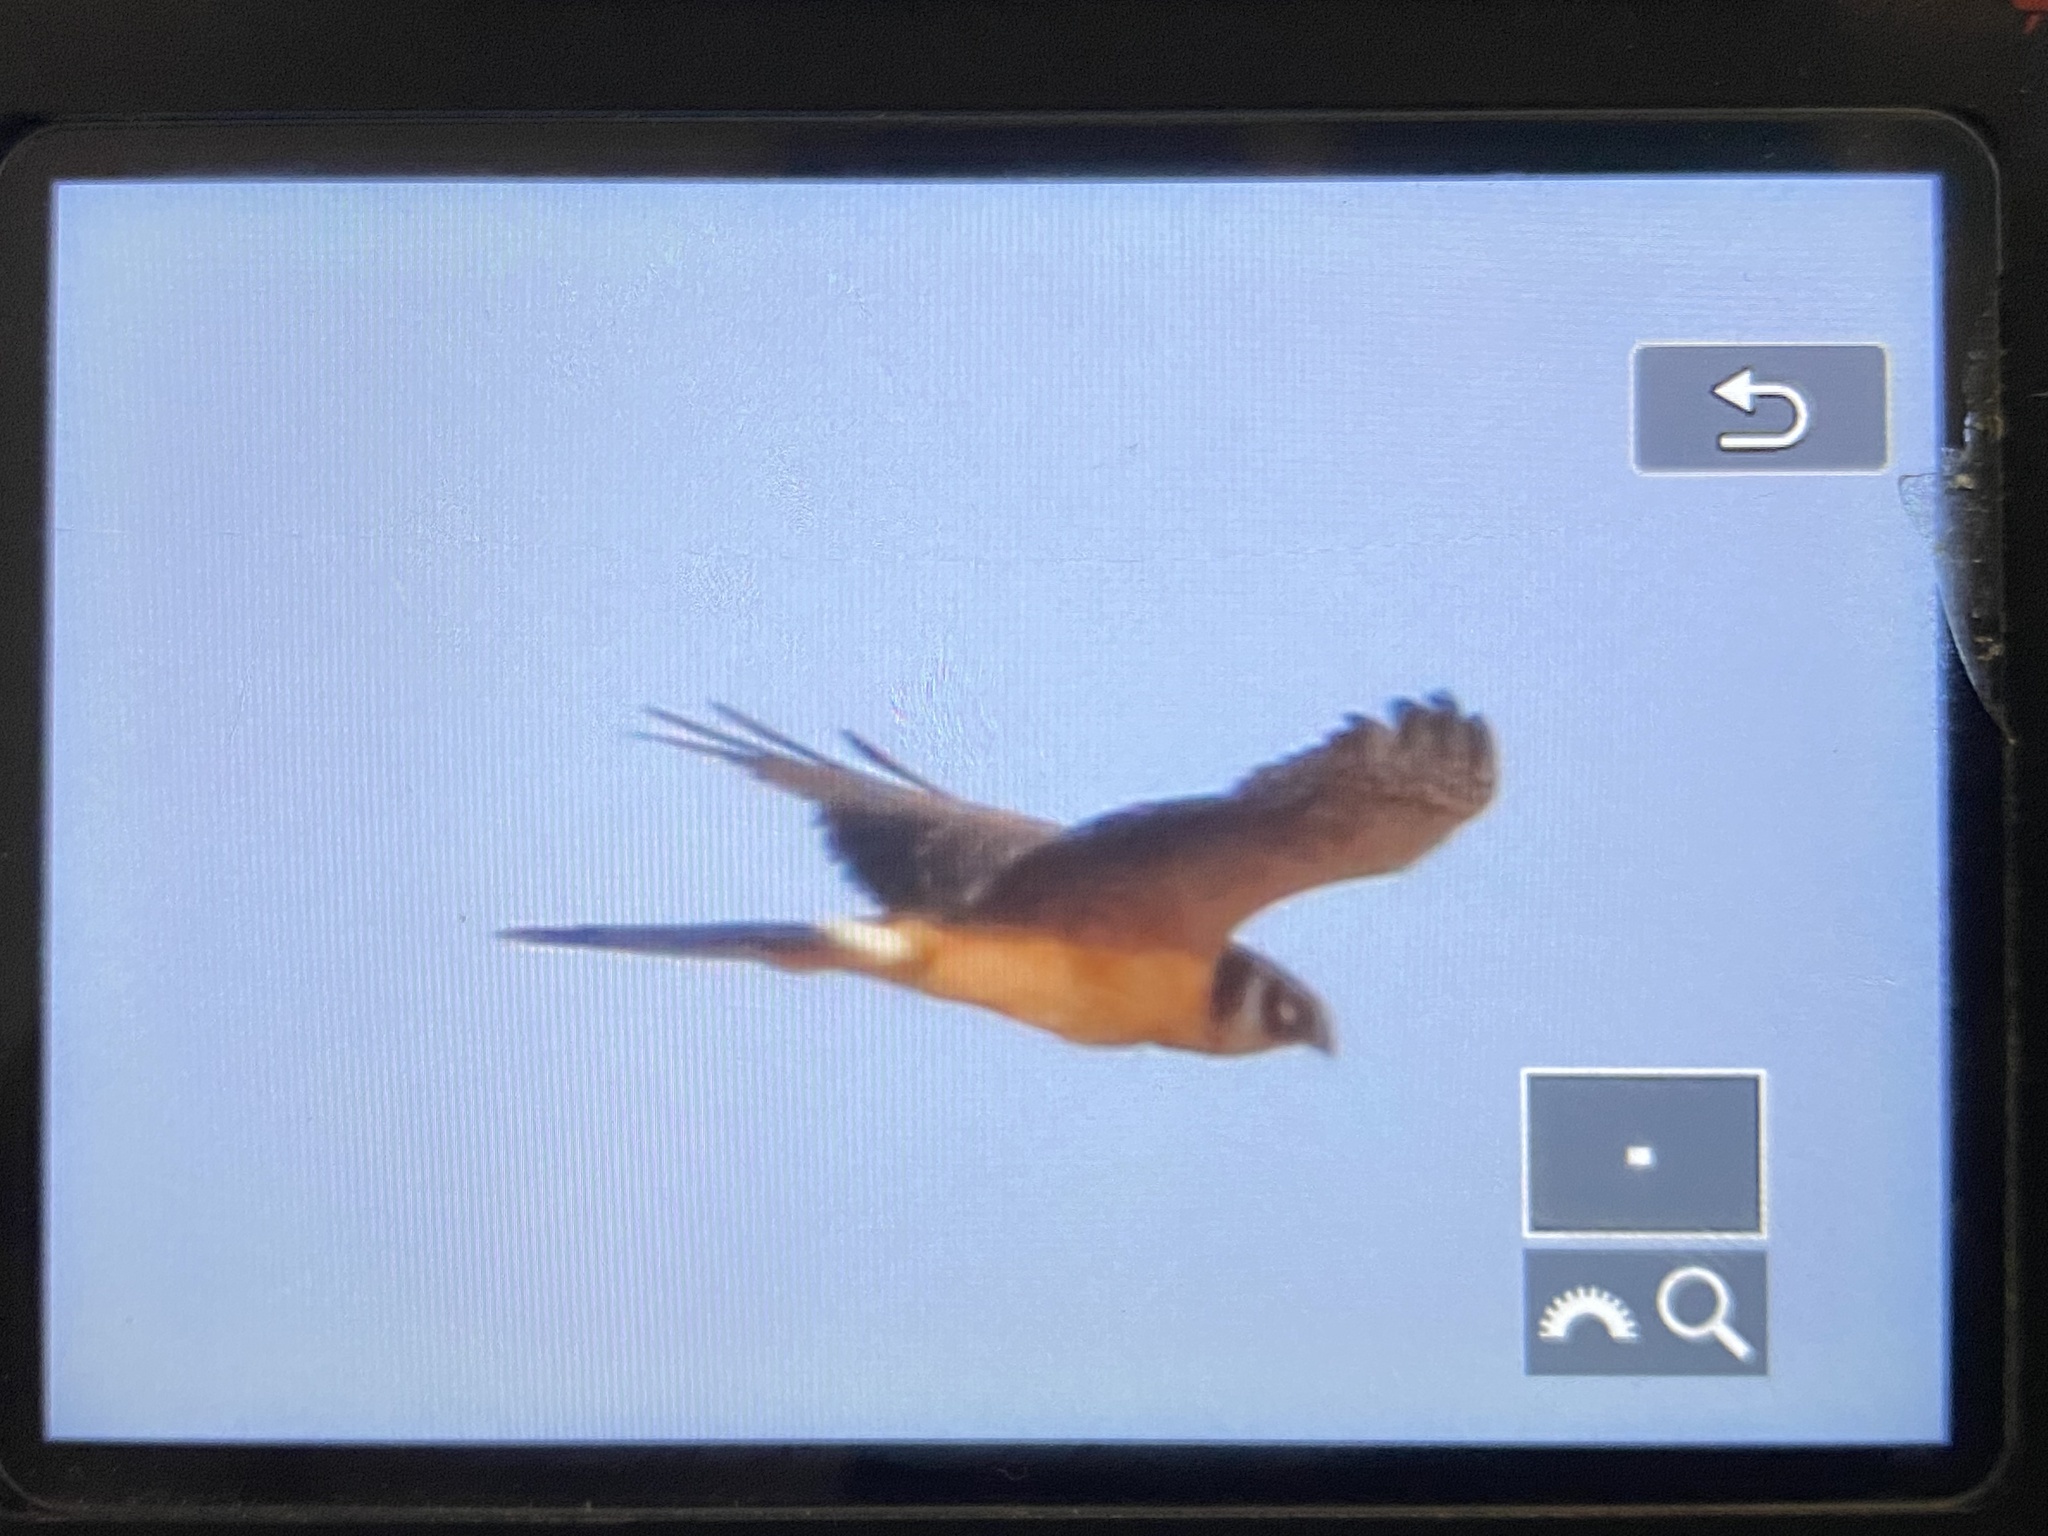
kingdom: Animalia
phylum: Chordata
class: Aves
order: Accipitriformes
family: Accipitridae
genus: Circus
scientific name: Circus macrourus
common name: Pallid harrier
